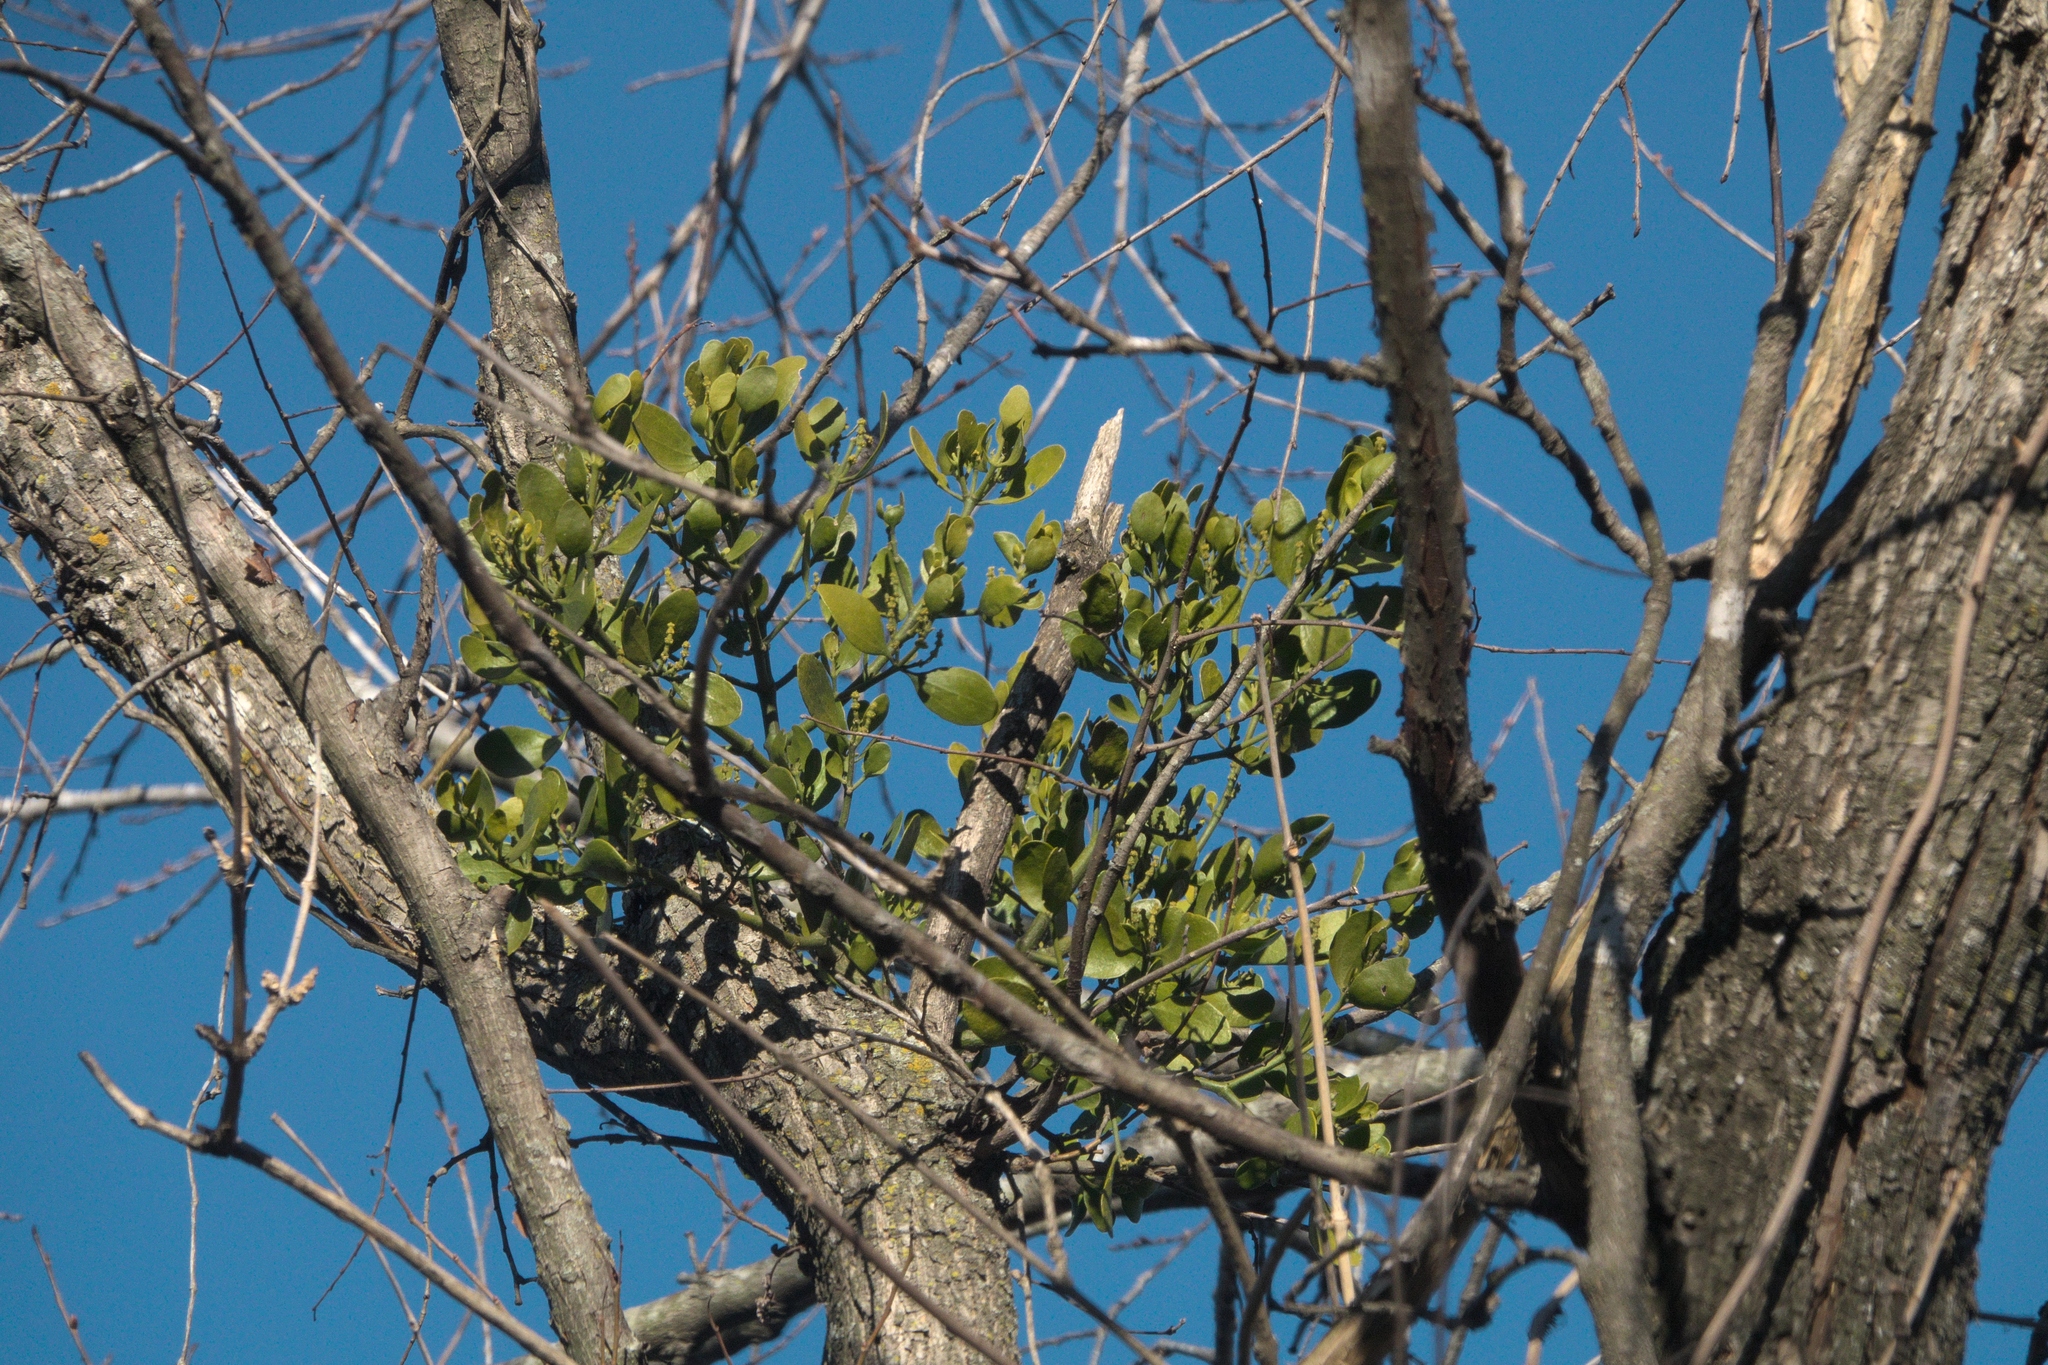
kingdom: Plantae
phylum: Tracheophyta
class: Magnoliopsida
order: Santalales
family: Viscaceae
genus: Phoradendron
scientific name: Phoradendron leucarpum
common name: Pacific mistletoe
